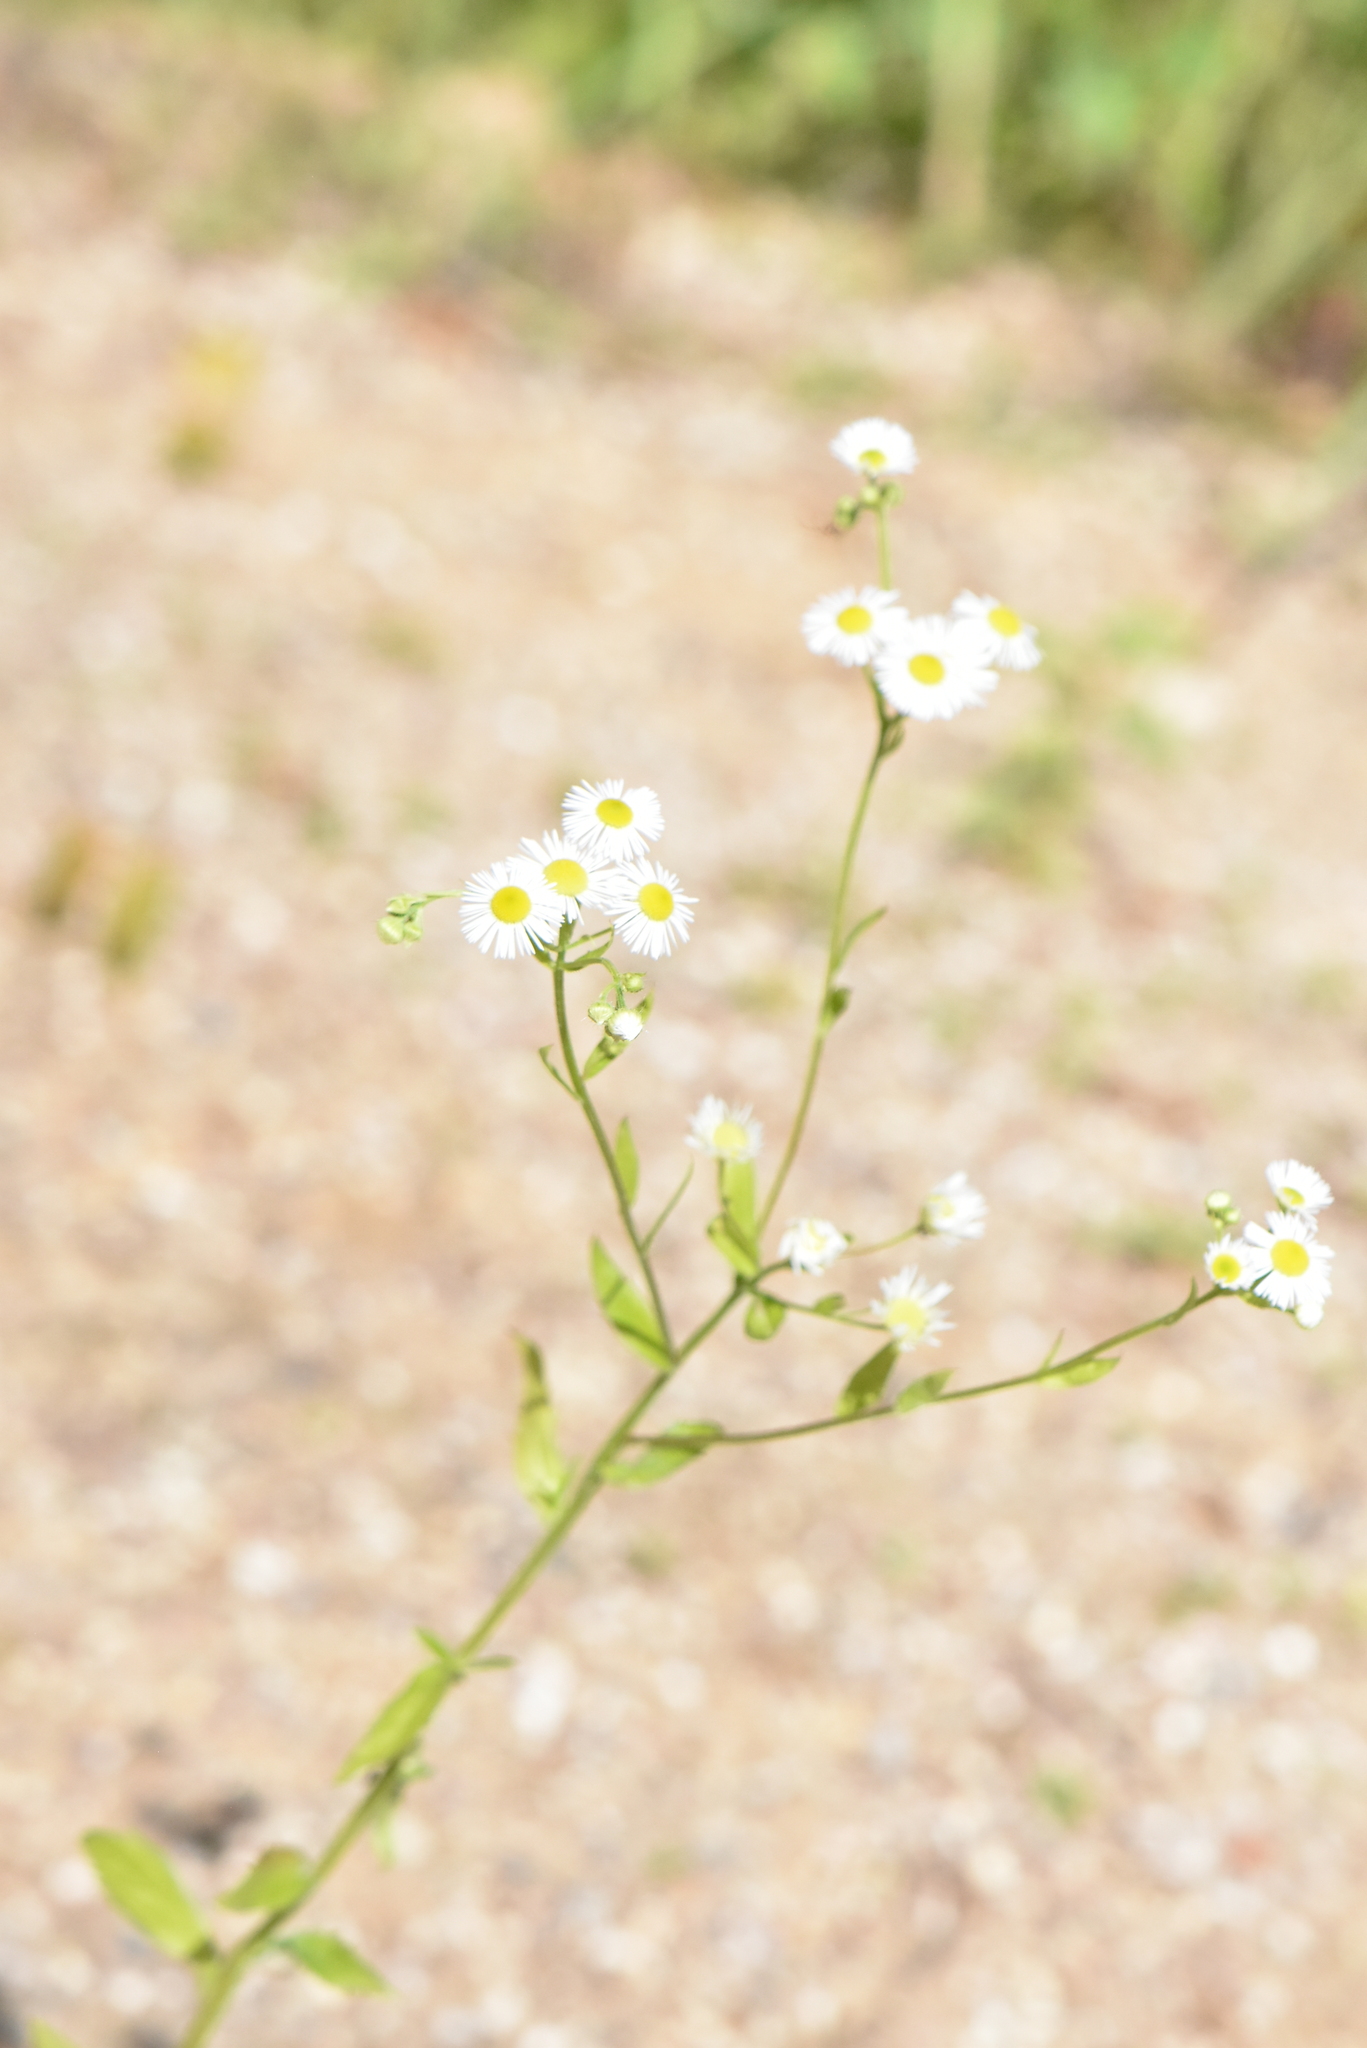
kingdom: Plantae
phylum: Tracheophyta
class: Magnoliopsida
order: Asterales
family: Asteraceae
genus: Erigeron
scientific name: Erigeron annuus
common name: Tall fleabane
